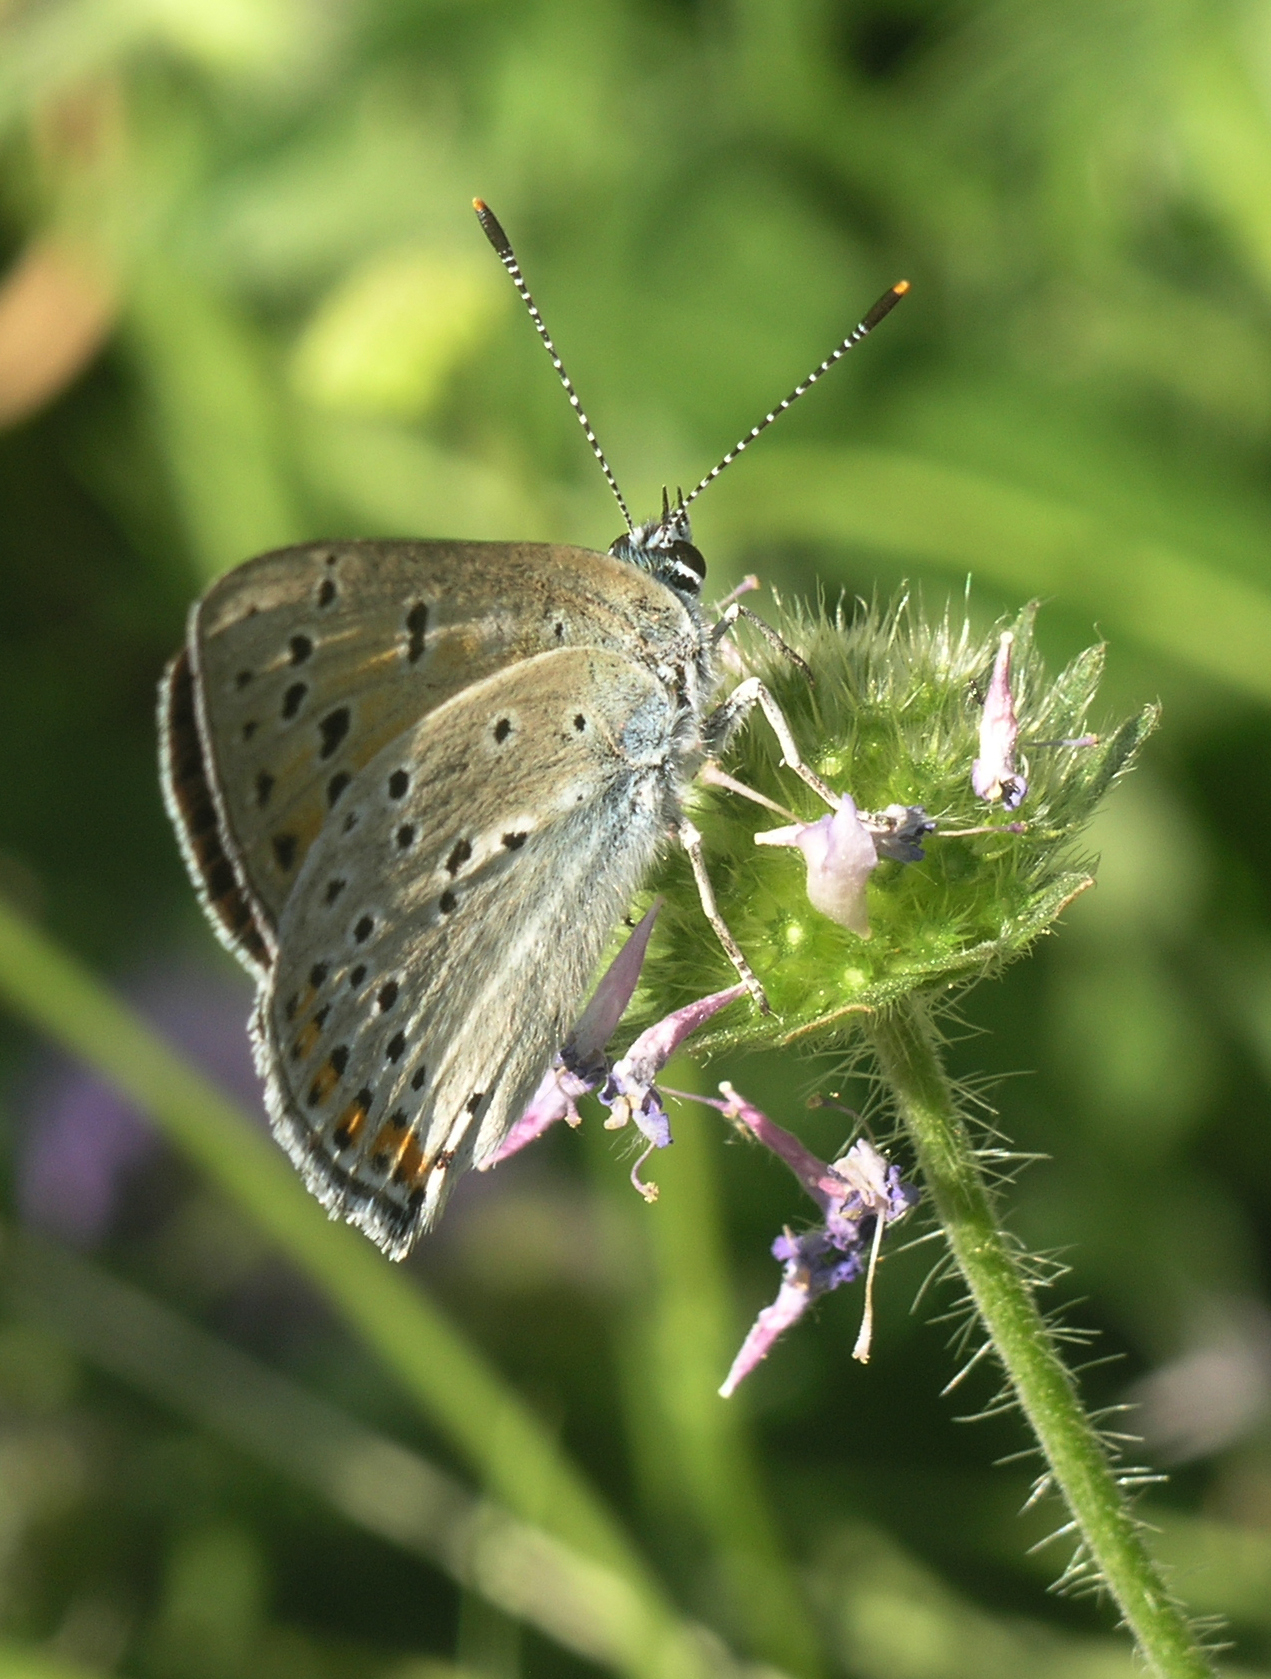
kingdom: Plantae
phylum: Tracheophyta
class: Magnoliopsida
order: Dipsacales
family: Caprifoliaceae
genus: Lomelosia
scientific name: Lomelosia songarica
